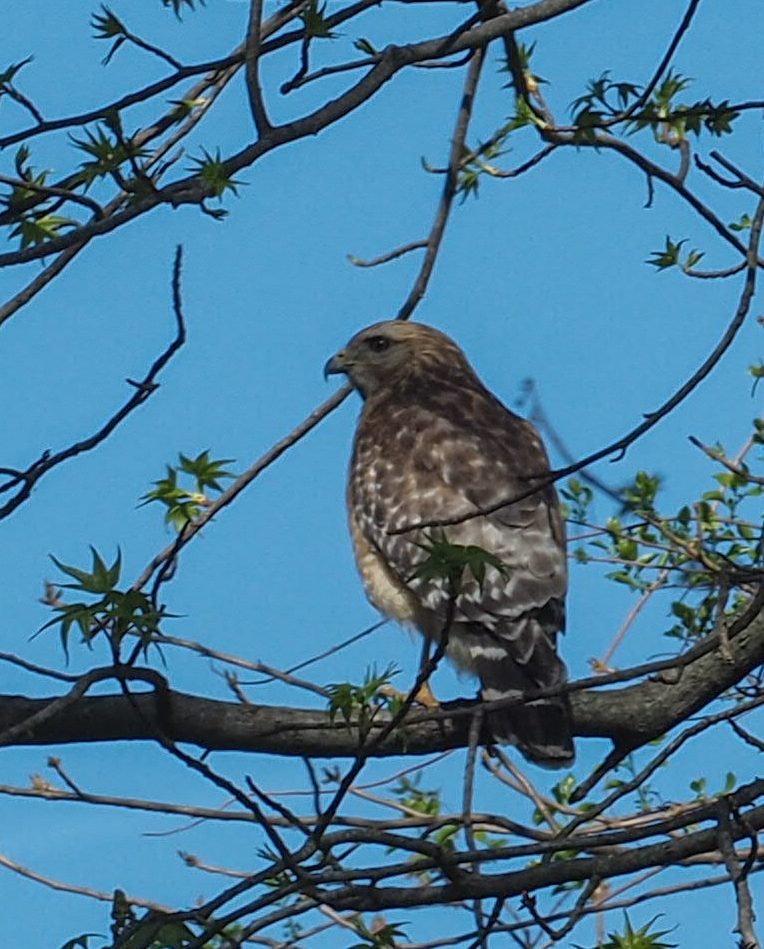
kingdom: Animalia
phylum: Chordata
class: Aves
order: Accipitriformes
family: Accipitridae
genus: Buteo
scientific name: Buteo lineatus
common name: Red-shouldered hawk
